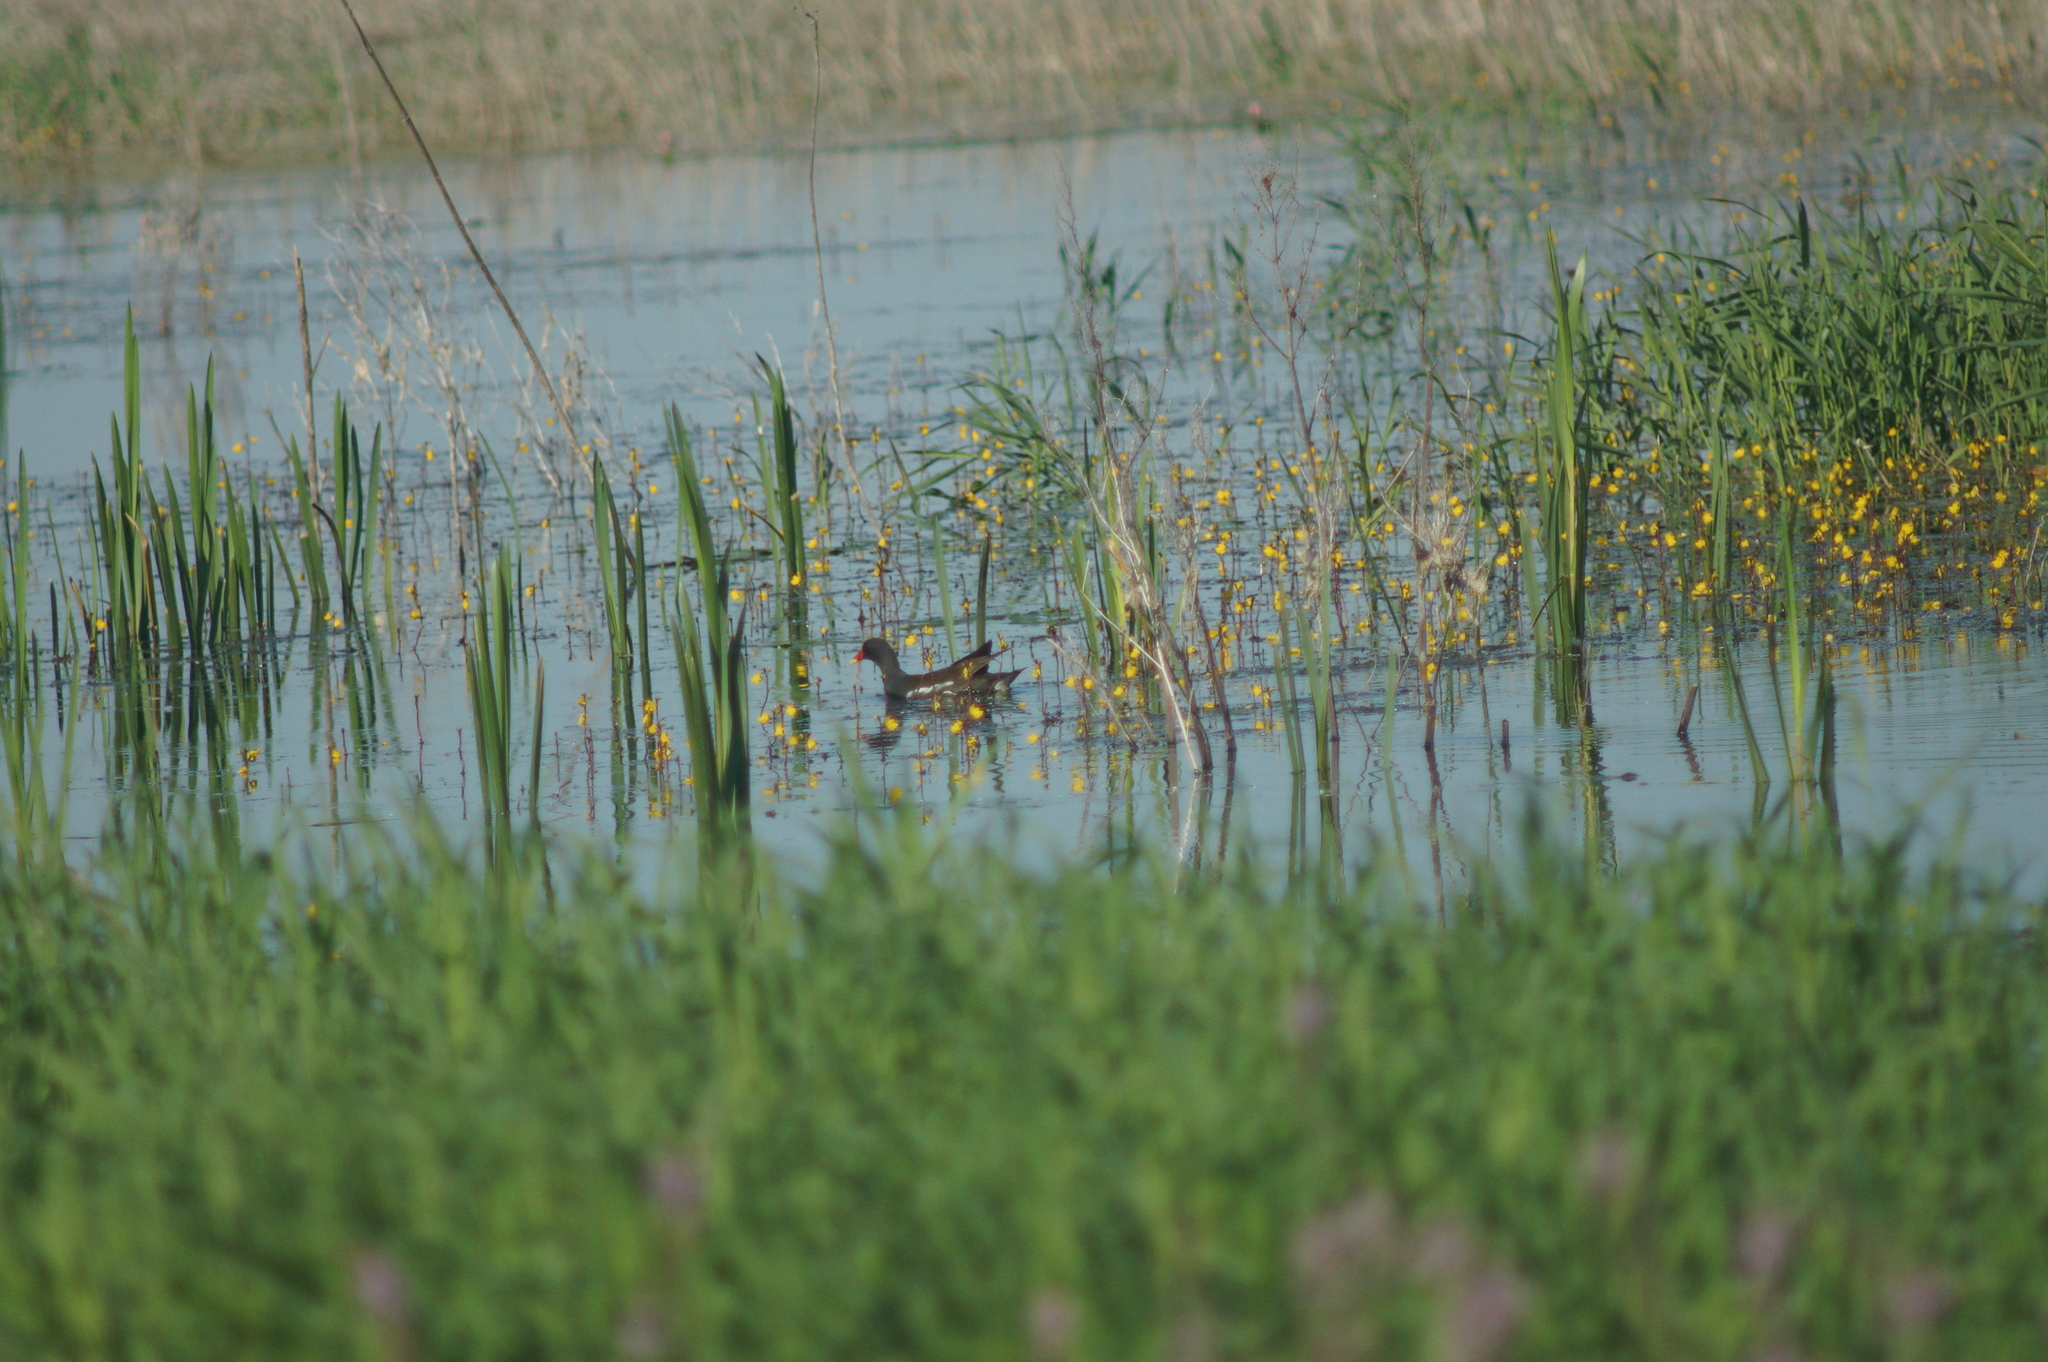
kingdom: Animalia
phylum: Chordata
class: Aves
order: Gruiformes
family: Rallidae
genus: Gallinula
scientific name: Gallinula chloropus
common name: Common moorhen
